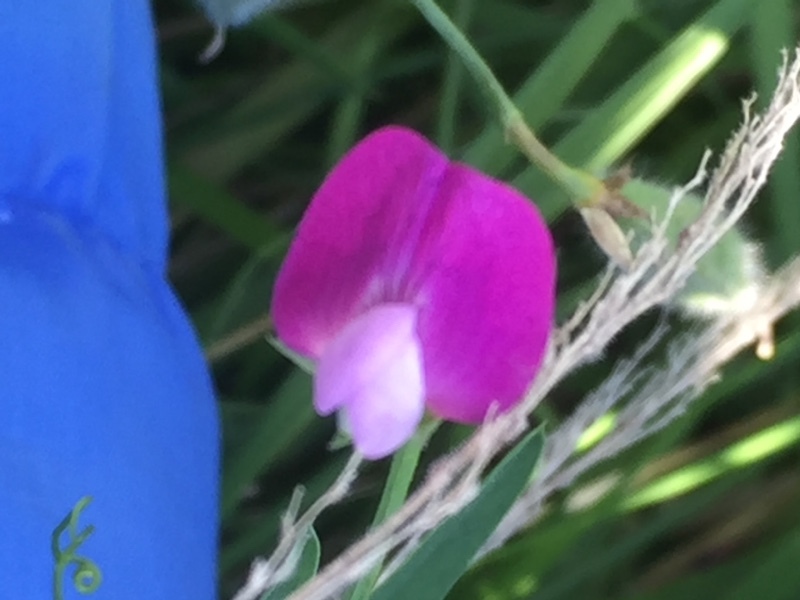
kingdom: Plantae
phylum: Tracheophyta
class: Magnoliopsida
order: Fabales
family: Fabaceae
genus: Lathyrus
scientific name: Lathyrus hirsutus
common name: Hairy vetchling
